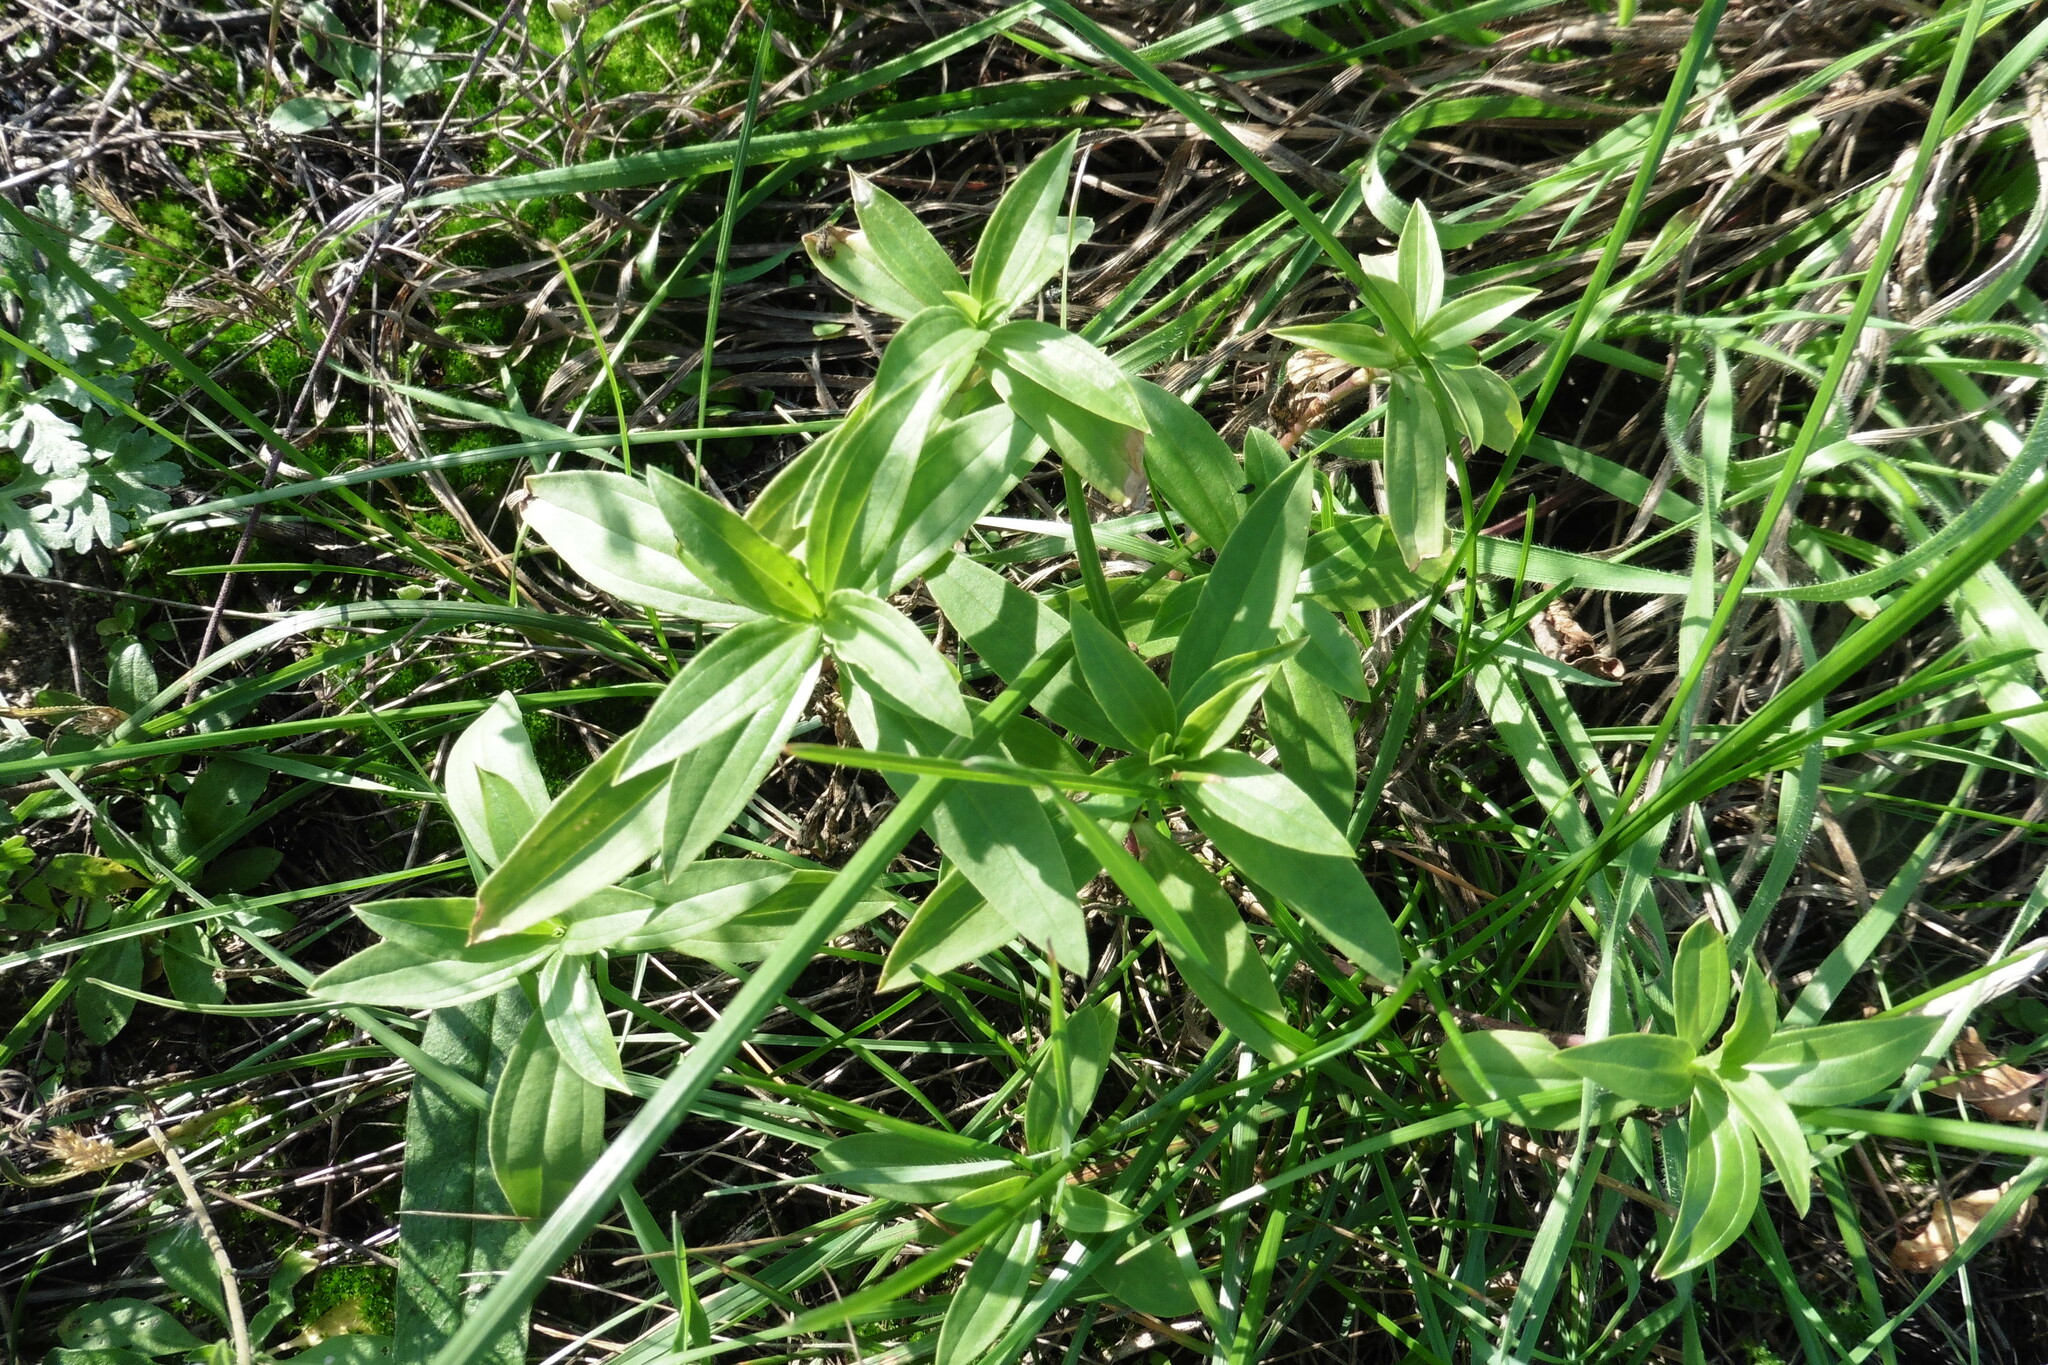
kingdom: Plantae
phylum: Tracheophyta
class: Magnoliopsida
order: Caryophyllales
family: Caryophyllaceae
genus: Saponaria
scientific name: Saponaria officinalis
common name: Soapwort
